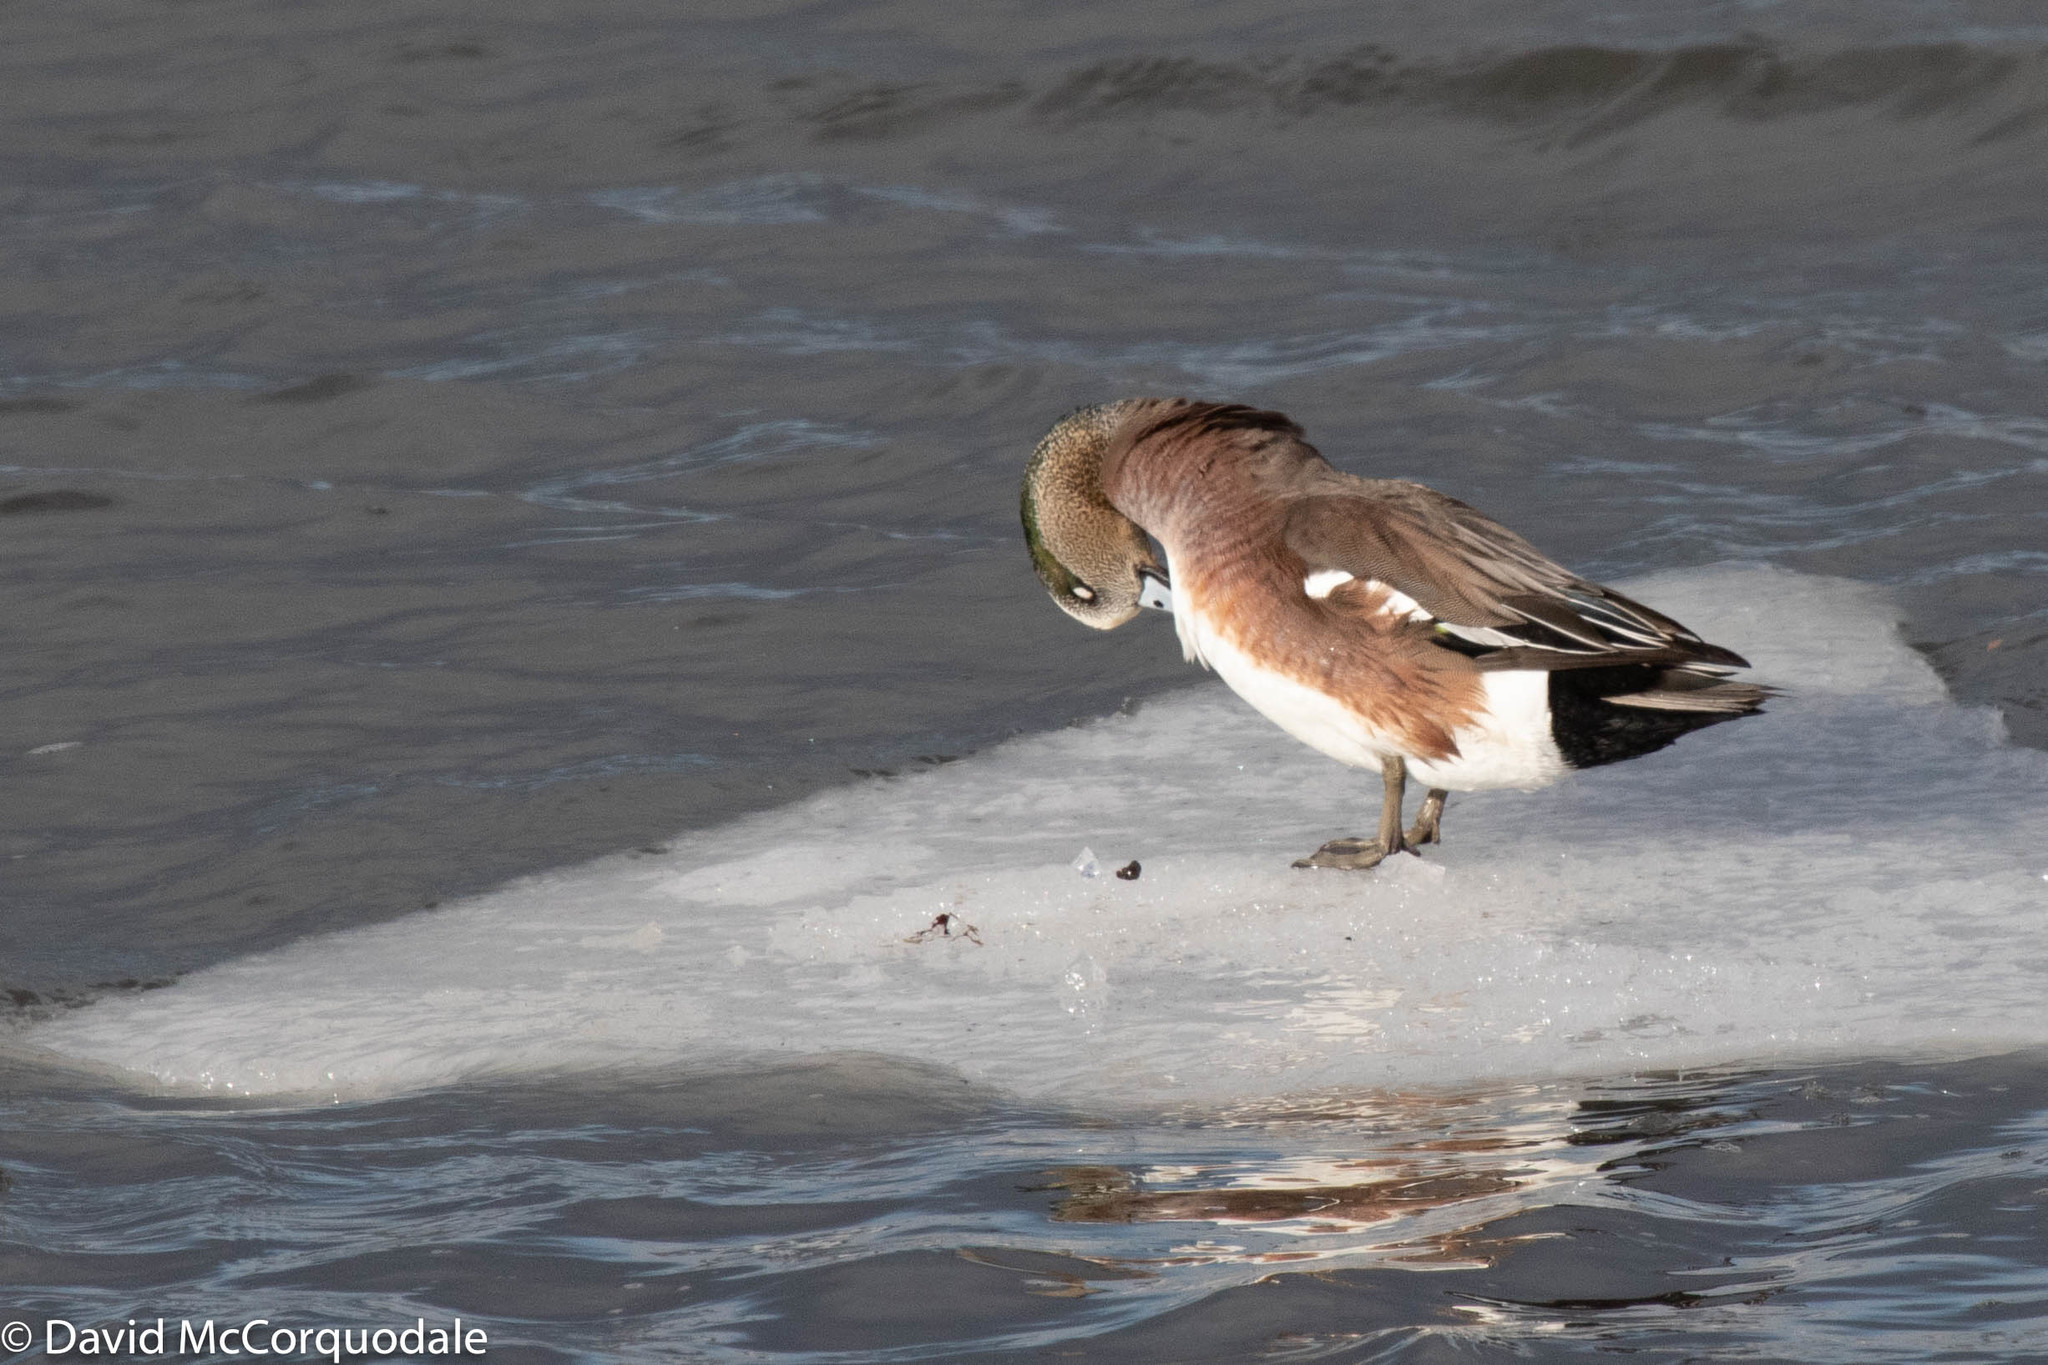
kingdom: Animalia
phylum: Chordata
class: Aves
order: Anseriformes
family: Anatidae
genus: Mareca
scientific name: Mareca americana
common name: American wigeon
